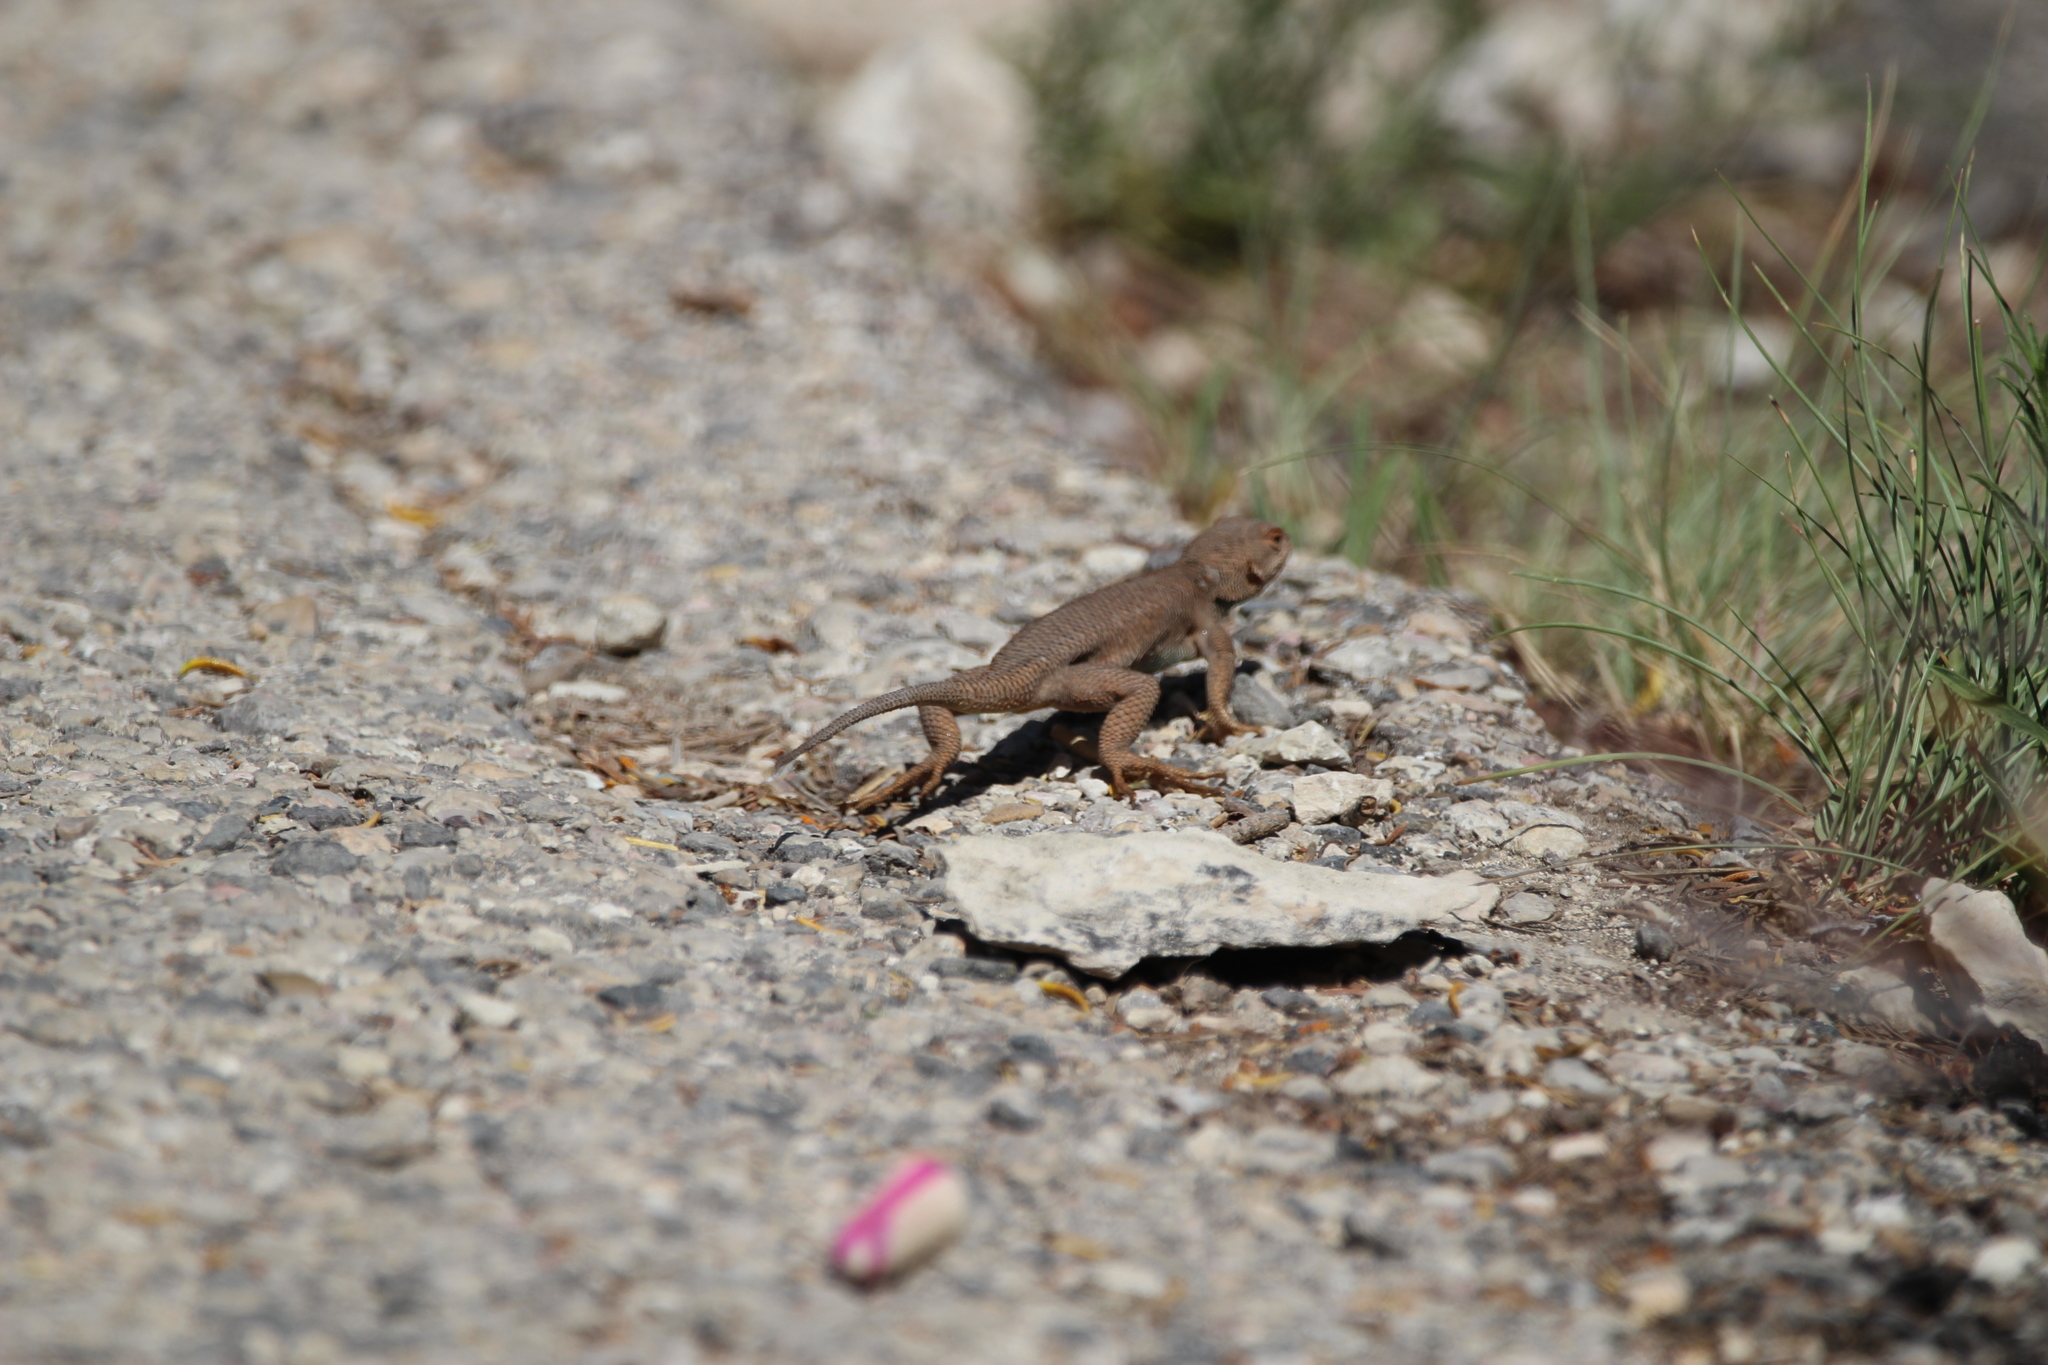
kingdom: Animalia
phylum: Chordata
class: Squamata
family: Phrynosomatidae
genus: Sceloporus
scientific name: Sceloporus tristichus
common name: Plateau fence lizard
